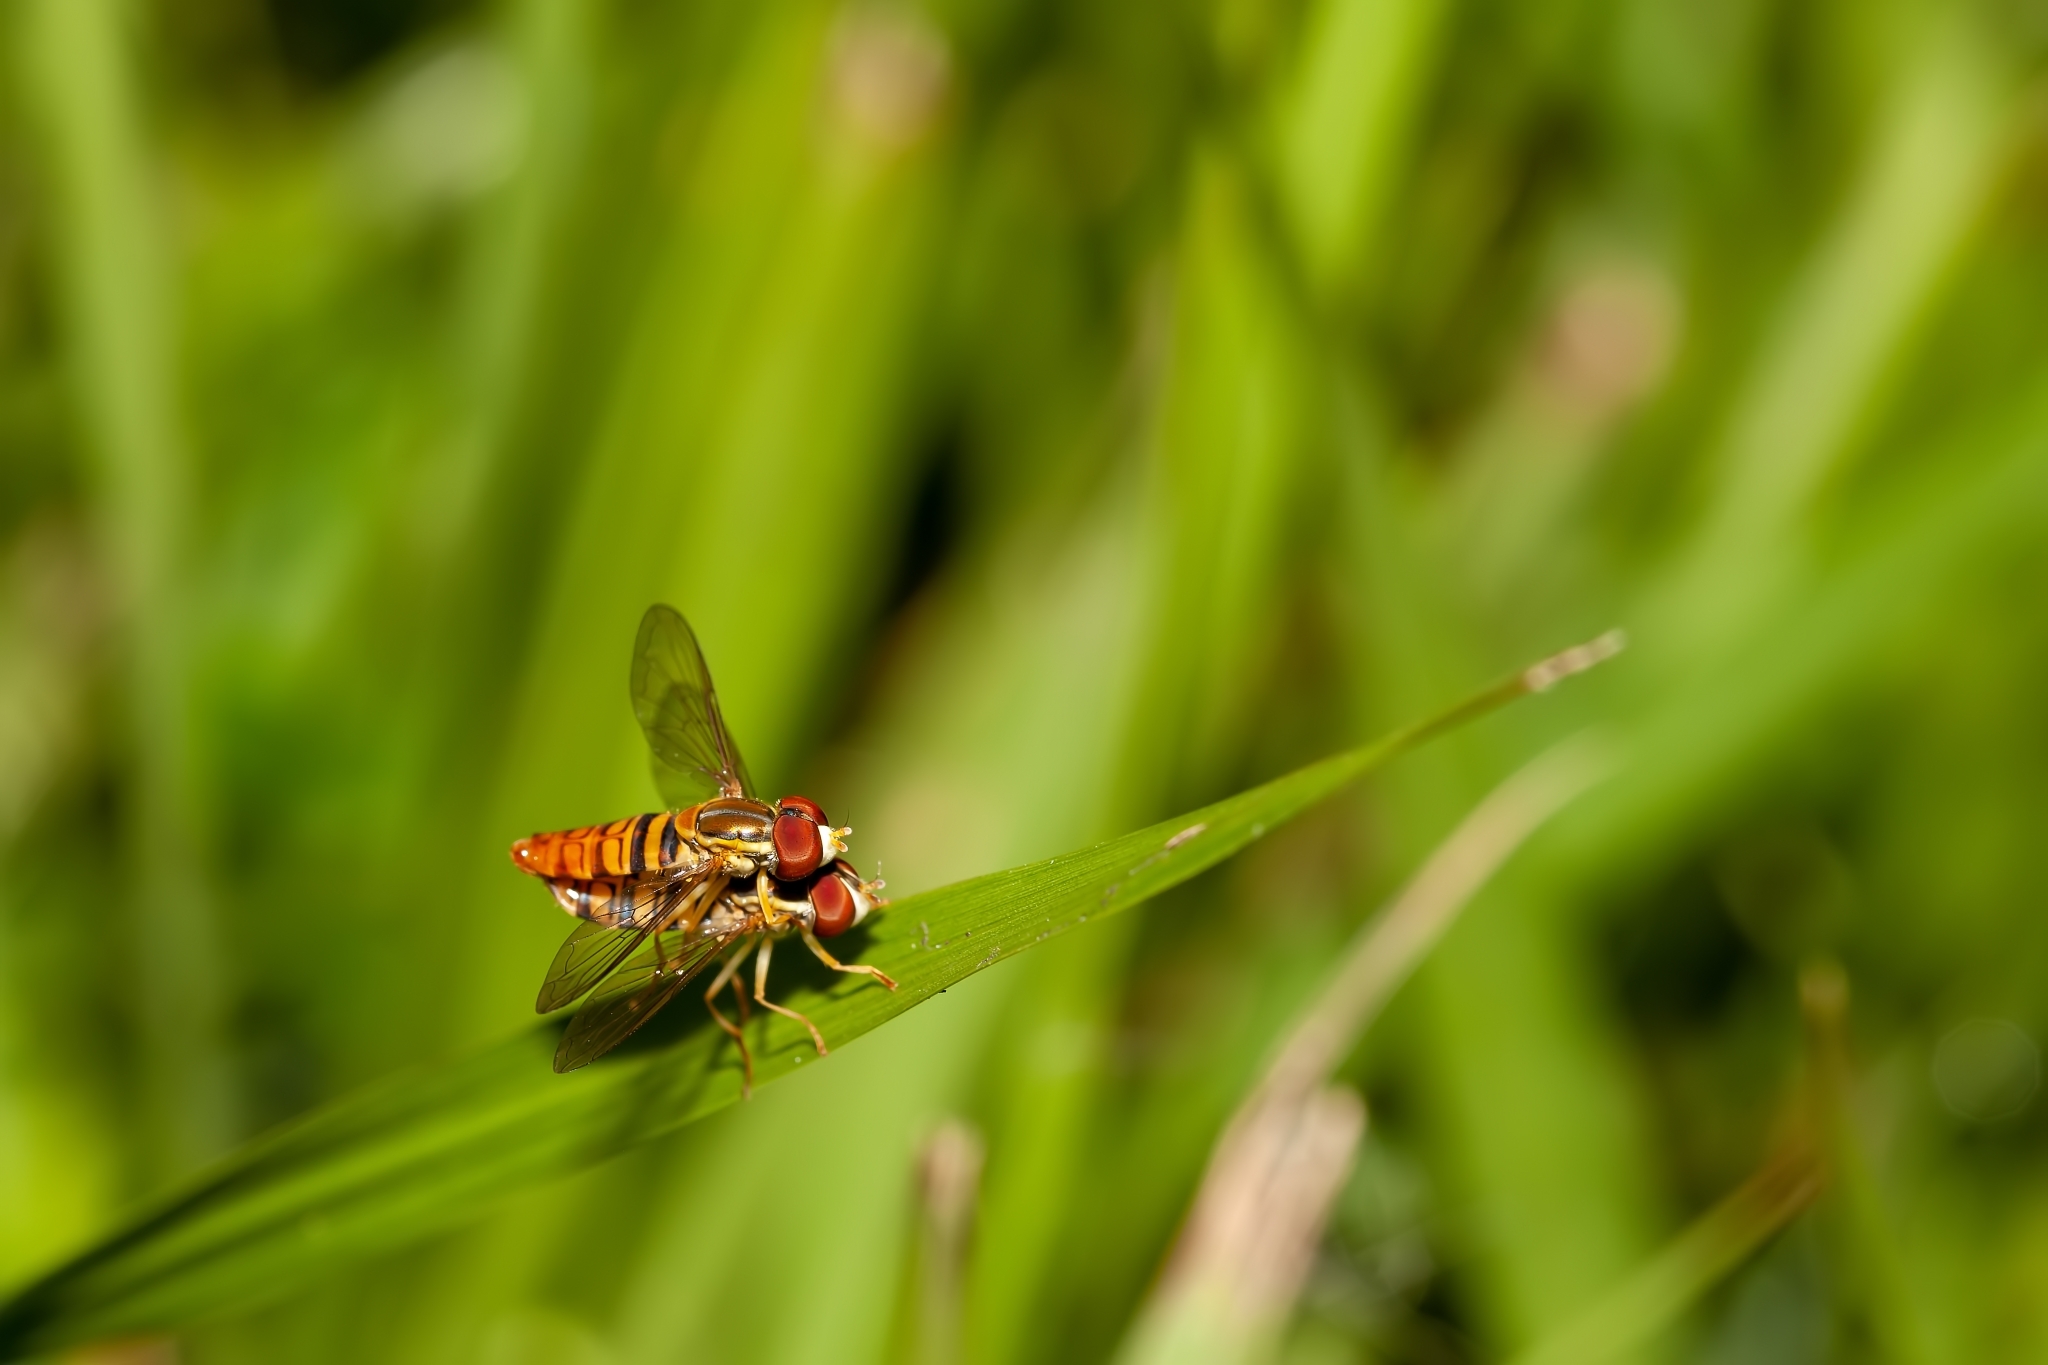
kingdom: Animalia
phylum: Arthropoda
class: Insecta
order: Diptera
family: Syrphidae
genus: Toxomerus
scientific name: Toxomerus politus
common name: Maize calligrapher
